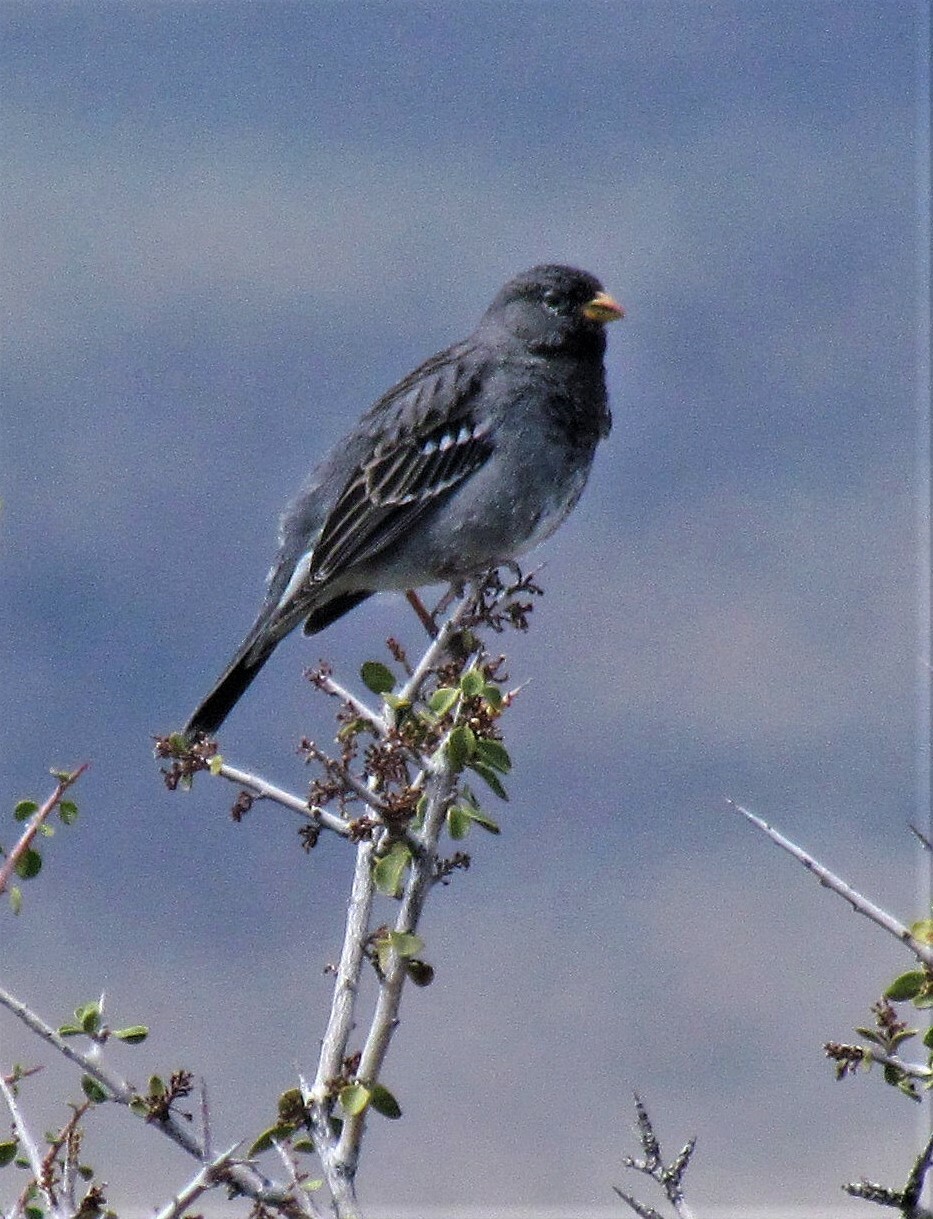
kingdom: Animalia
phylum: Chordata
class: Aves
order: Passeriformes
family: Thraupidae
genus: Rhopospina
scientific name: Rhopospina fruticeti
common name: Mourning sierra finch
